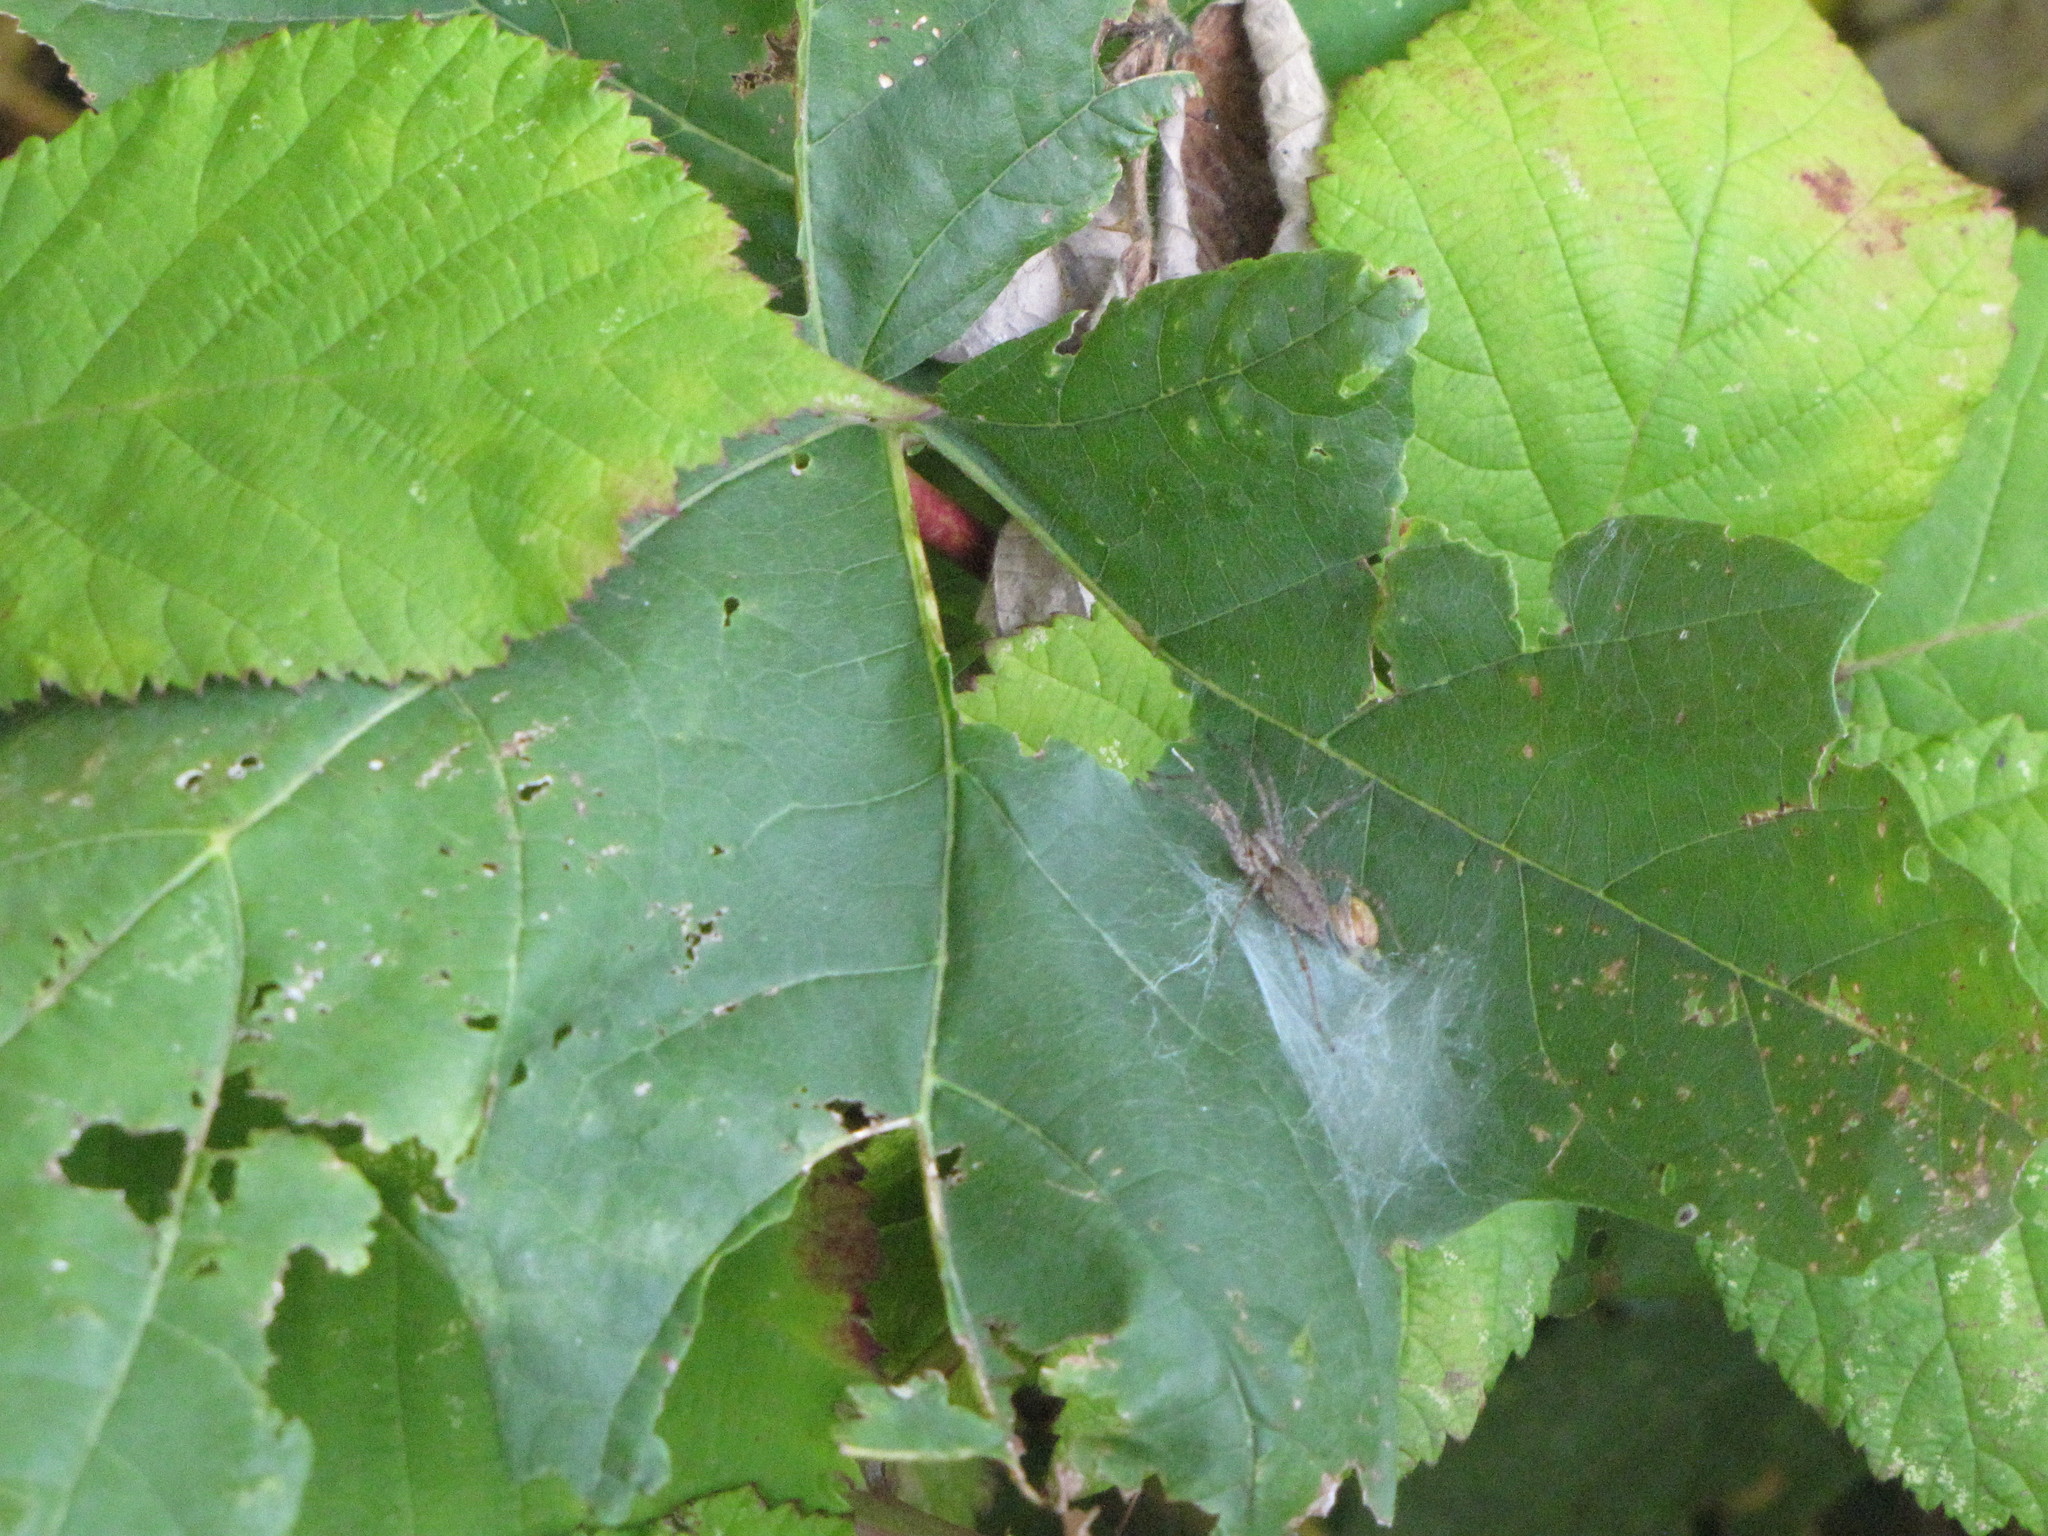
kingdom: Animalia
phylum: Arthropoda
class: Arachnida
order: Araneae
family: Agelenidae
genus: Agelenopsis
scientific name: Agelenopsis
